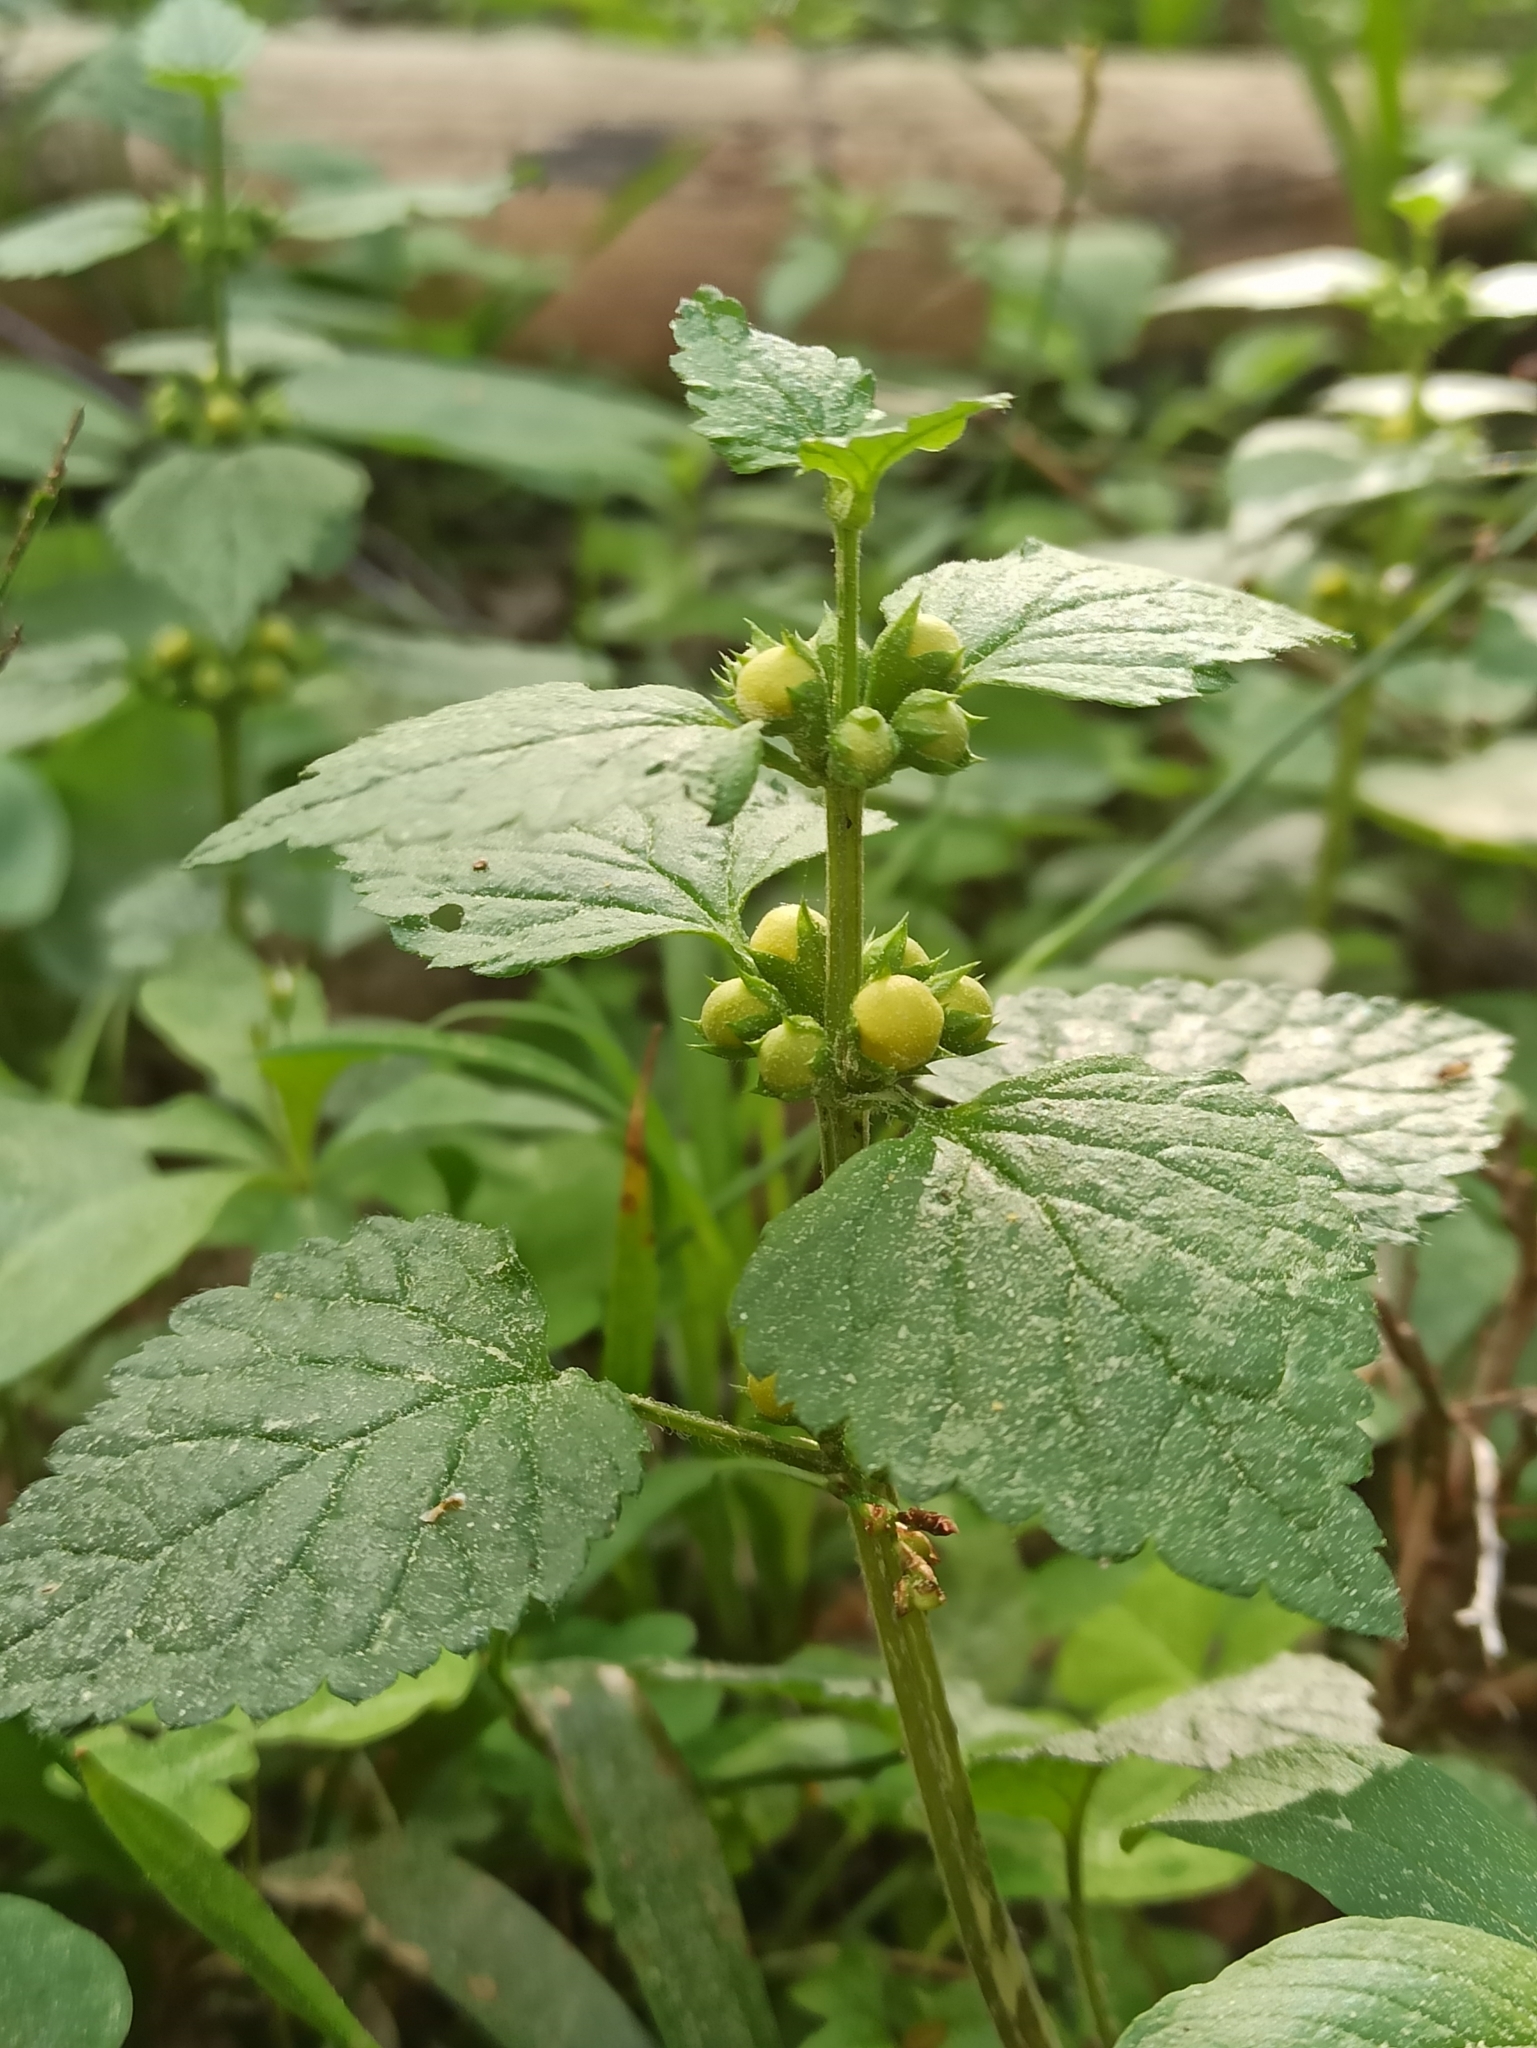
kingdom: Plantae
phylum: Tracheophyta
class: Magnoliopsida
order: Lamiales
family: Lamiaceae
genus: Lamium
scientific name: Lamium galeobdolon
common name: Yellow archangel
